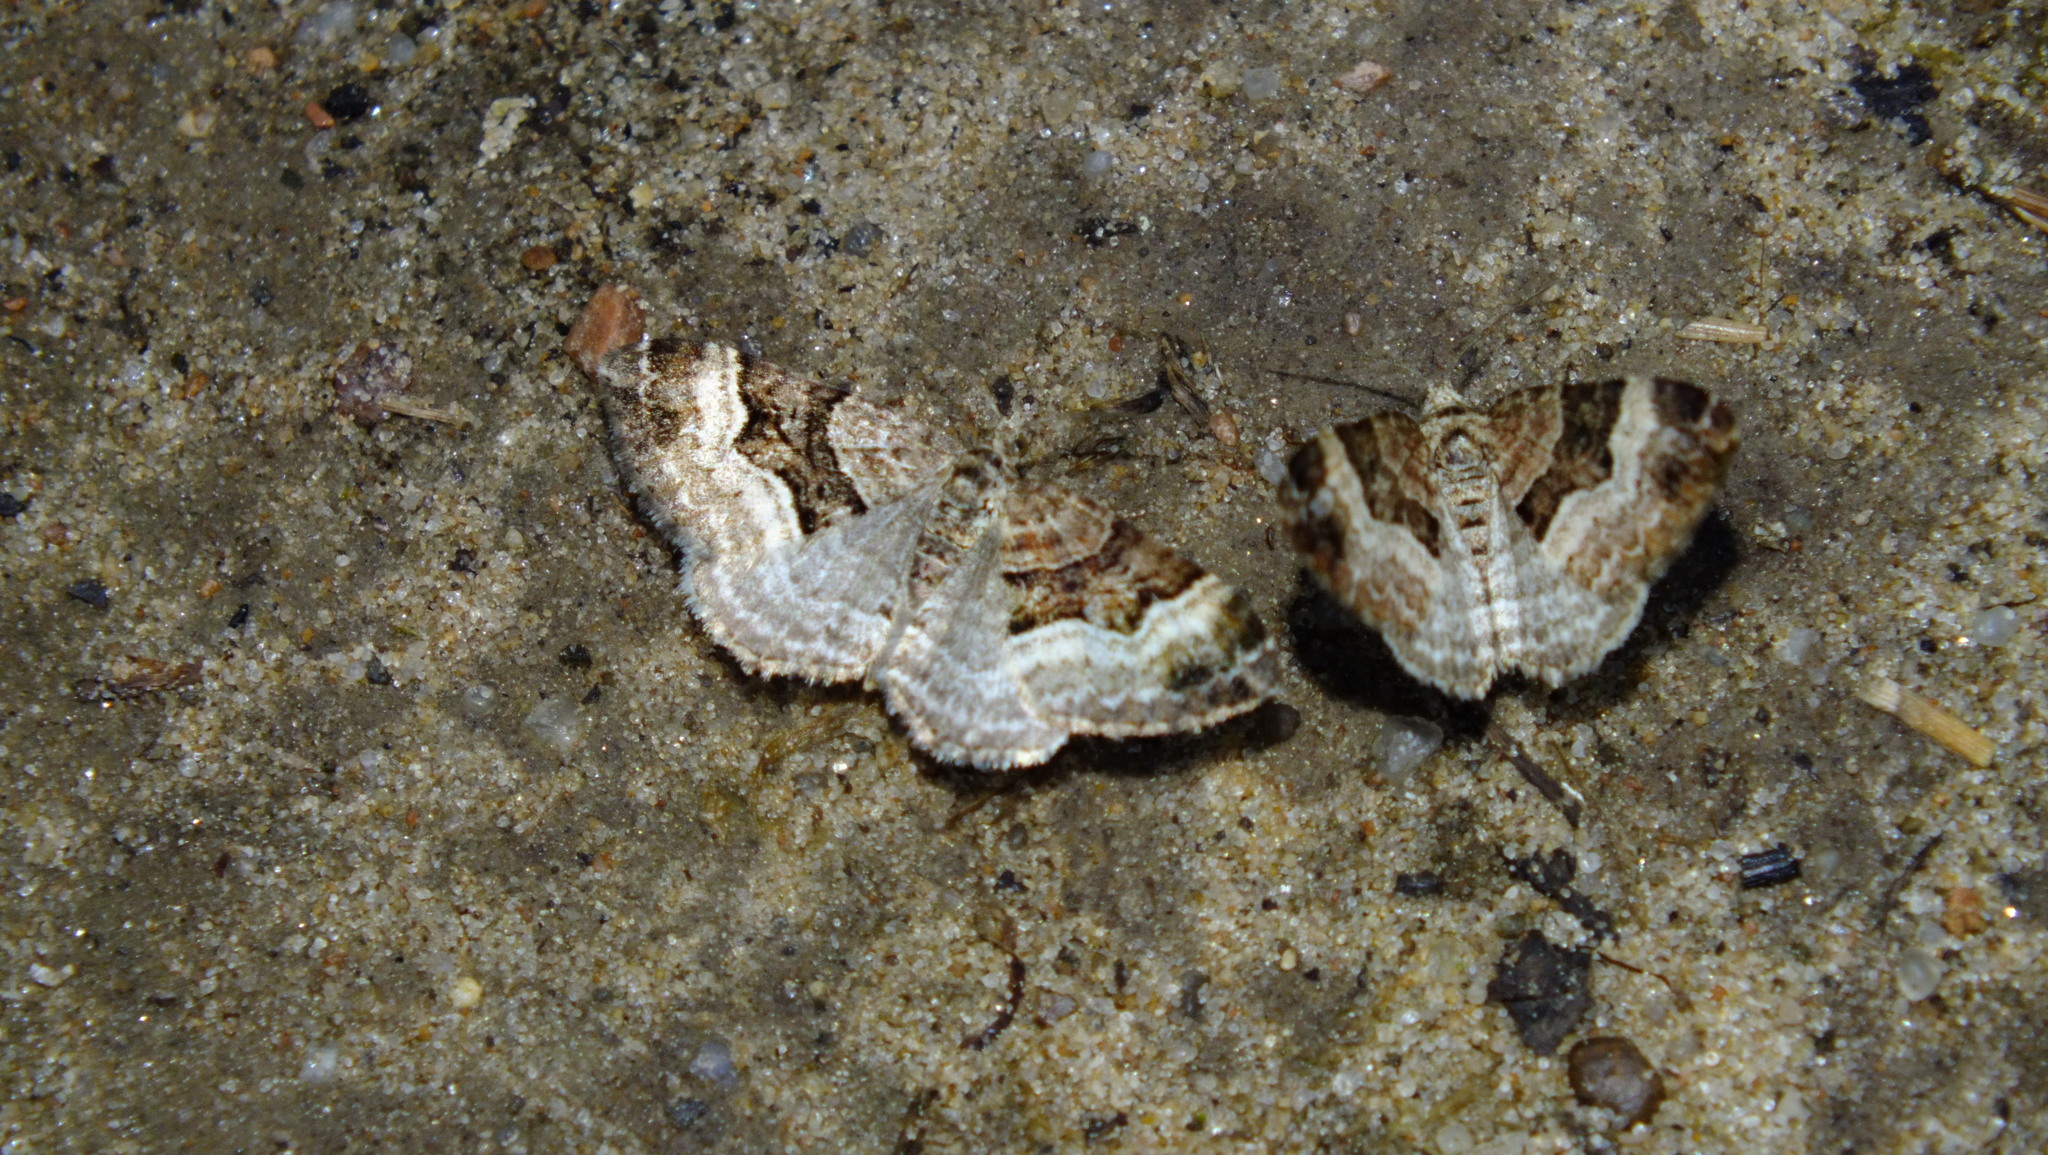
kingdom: Animalia
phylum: Arthropoda
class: Insecta
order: Lepidoptera
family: Geometridae
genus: Xanthorhoe
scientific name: Xanthorhoe biriviata
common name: Balsam carpet
